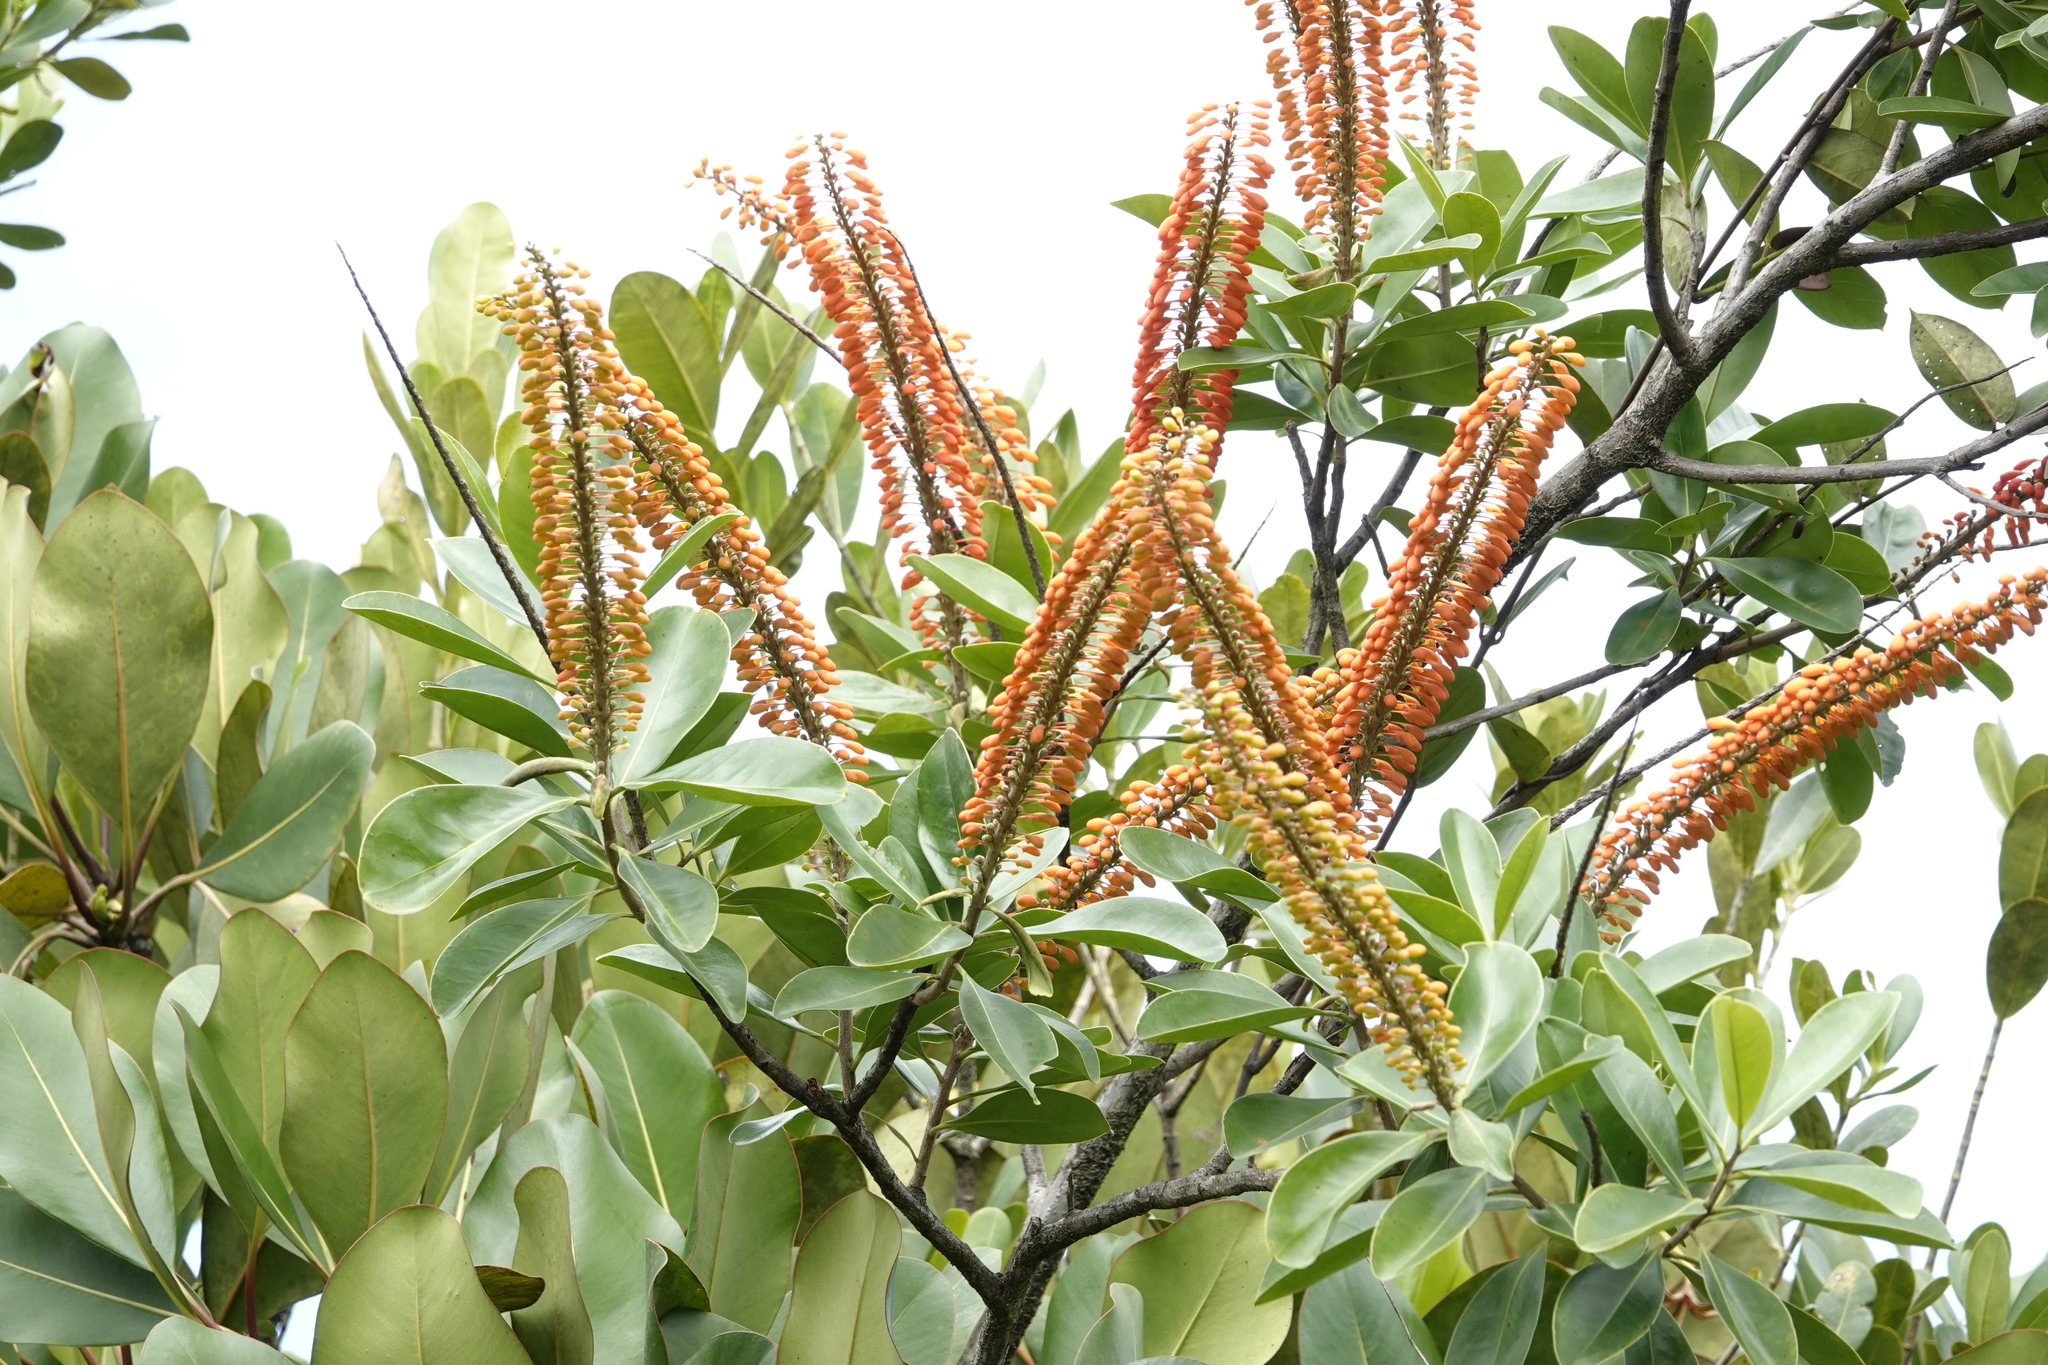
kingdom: Plantae
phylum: Tracheophyta
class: Magnoliopsida
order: Ericales
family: Marcgraviaceae
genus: Norantea
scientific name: Norantea guianensis
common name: Red hot poker vine
